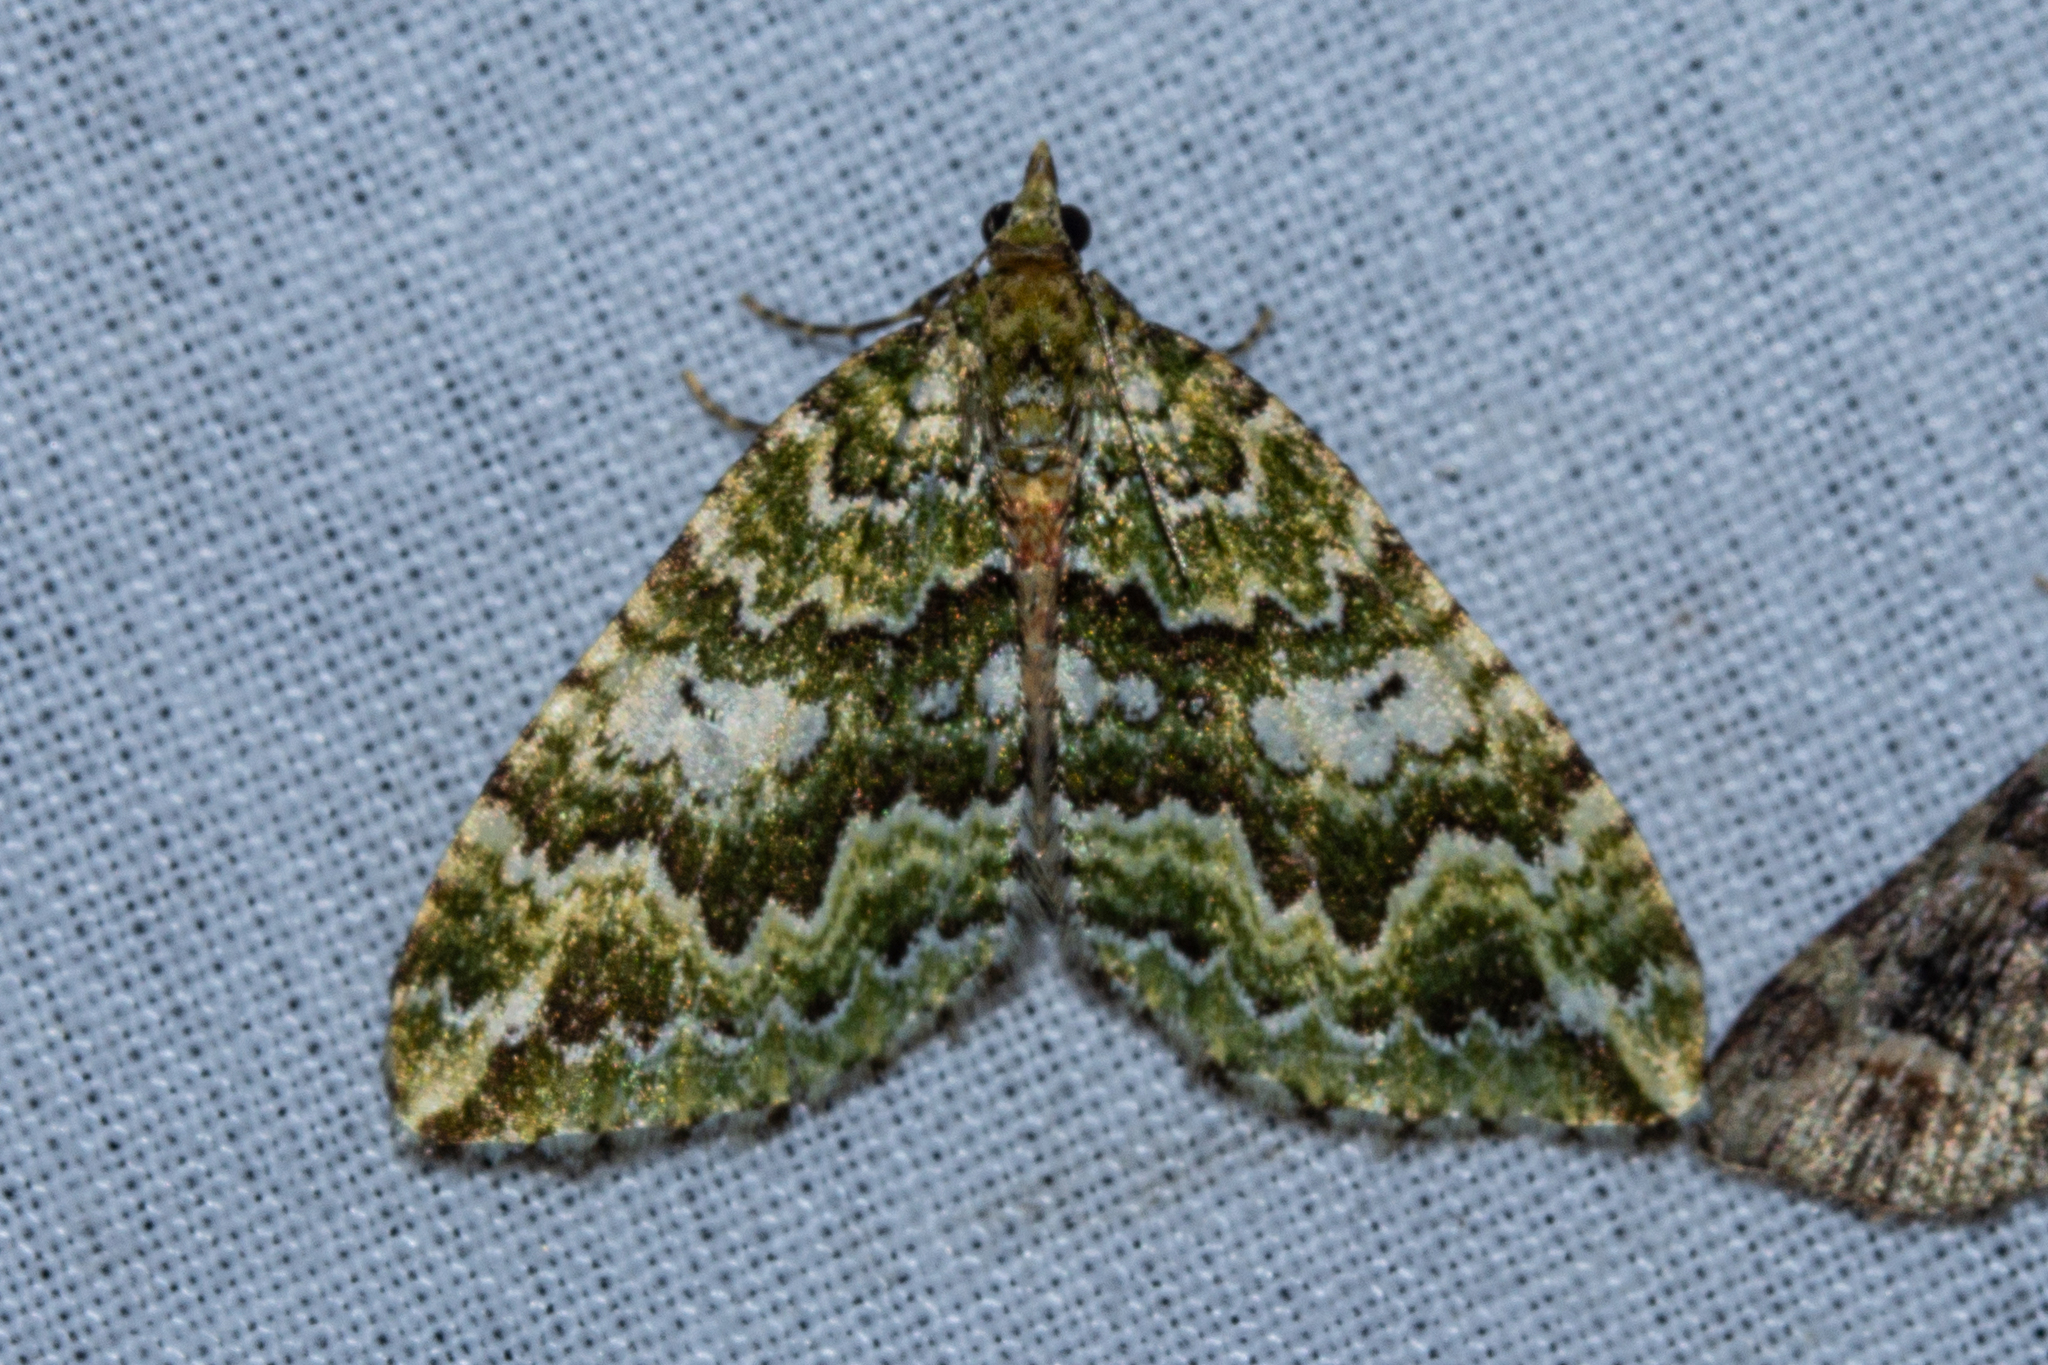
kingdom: Animalia
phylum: Arthropoda
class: Insecta
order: Lepidoptera
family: Geometridae
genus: Asaphodes
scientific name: Asaphodes beata
